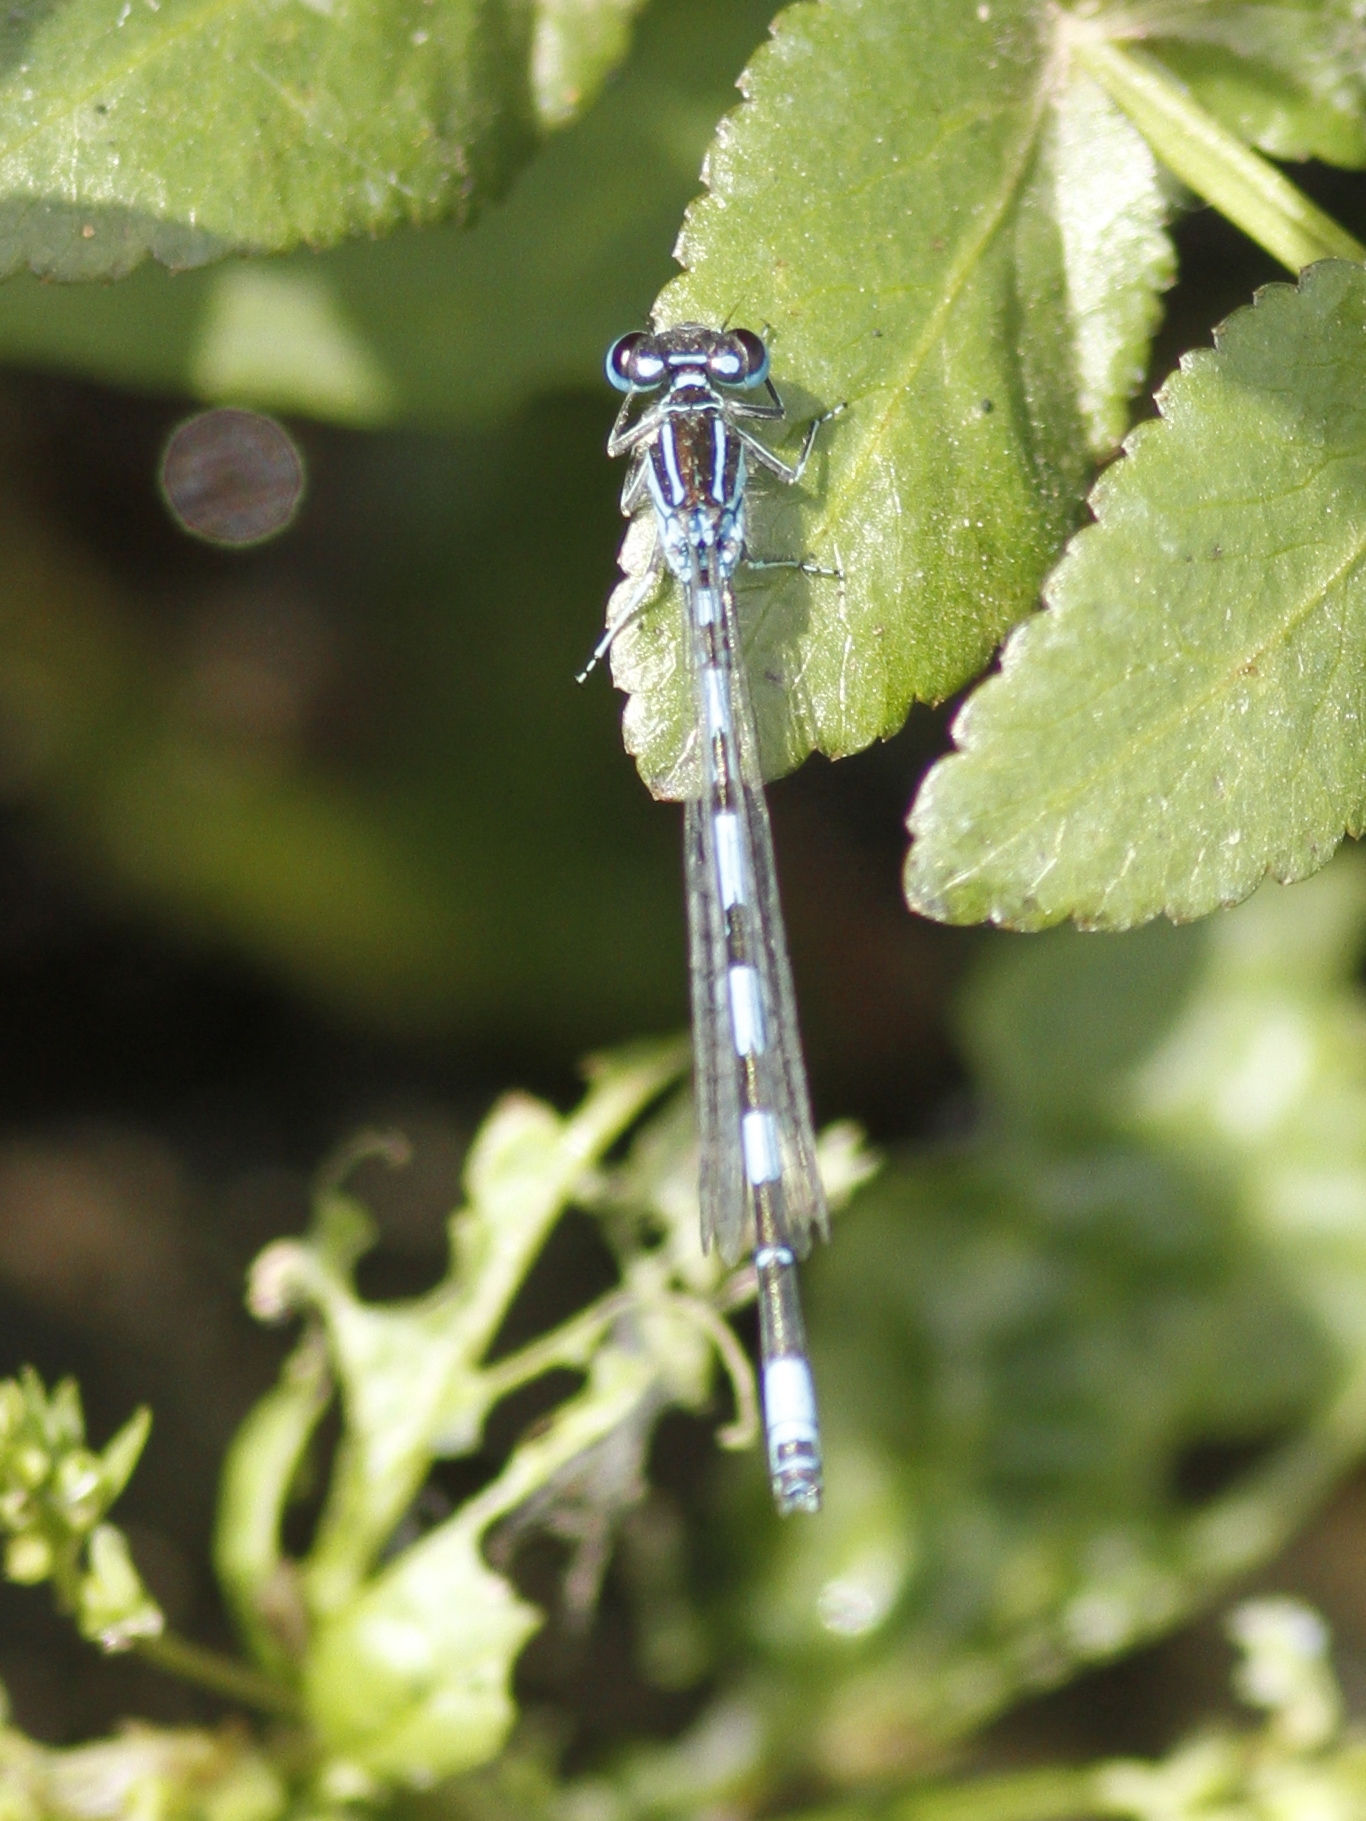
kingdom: Animalia
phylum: Arthropoda
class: Insecta
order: Odonata
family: Coenagrionidae
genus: Coenagrion
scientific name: Coenagrion mercuriale
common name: Southern damselfly
